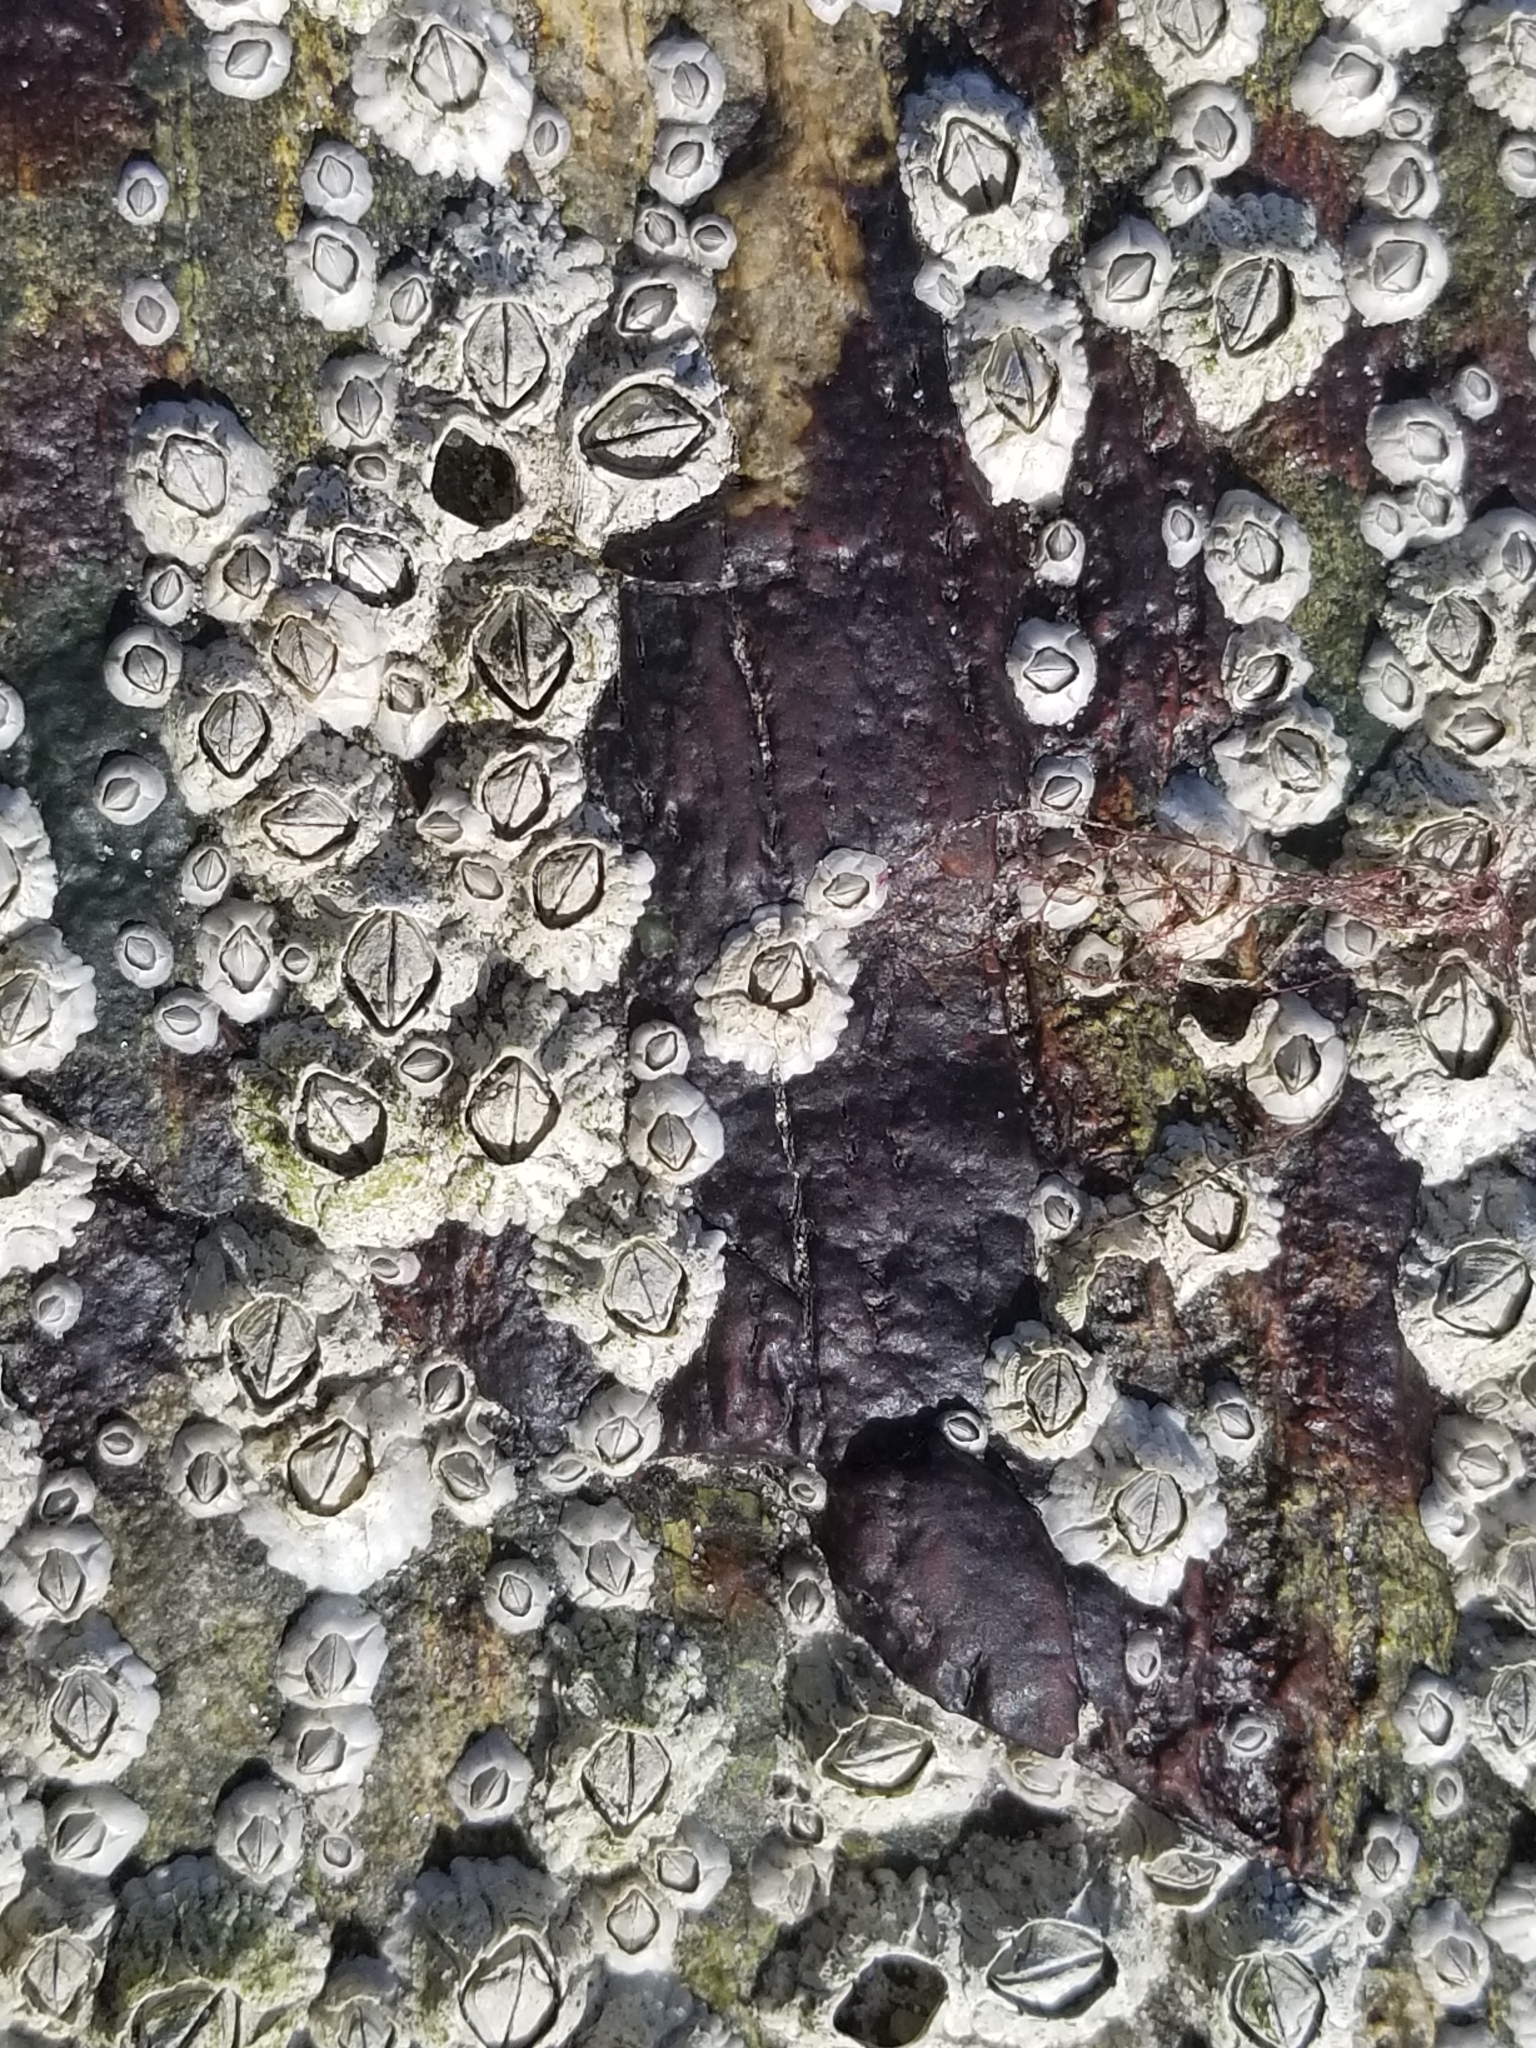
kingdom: Animalia
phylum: Arthropoda
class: Maxillopoda
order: Sessilia
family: Archaeobalanidae
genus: Semibalanus
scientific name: Semibalanus balanoides
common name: Acorn barnacle
